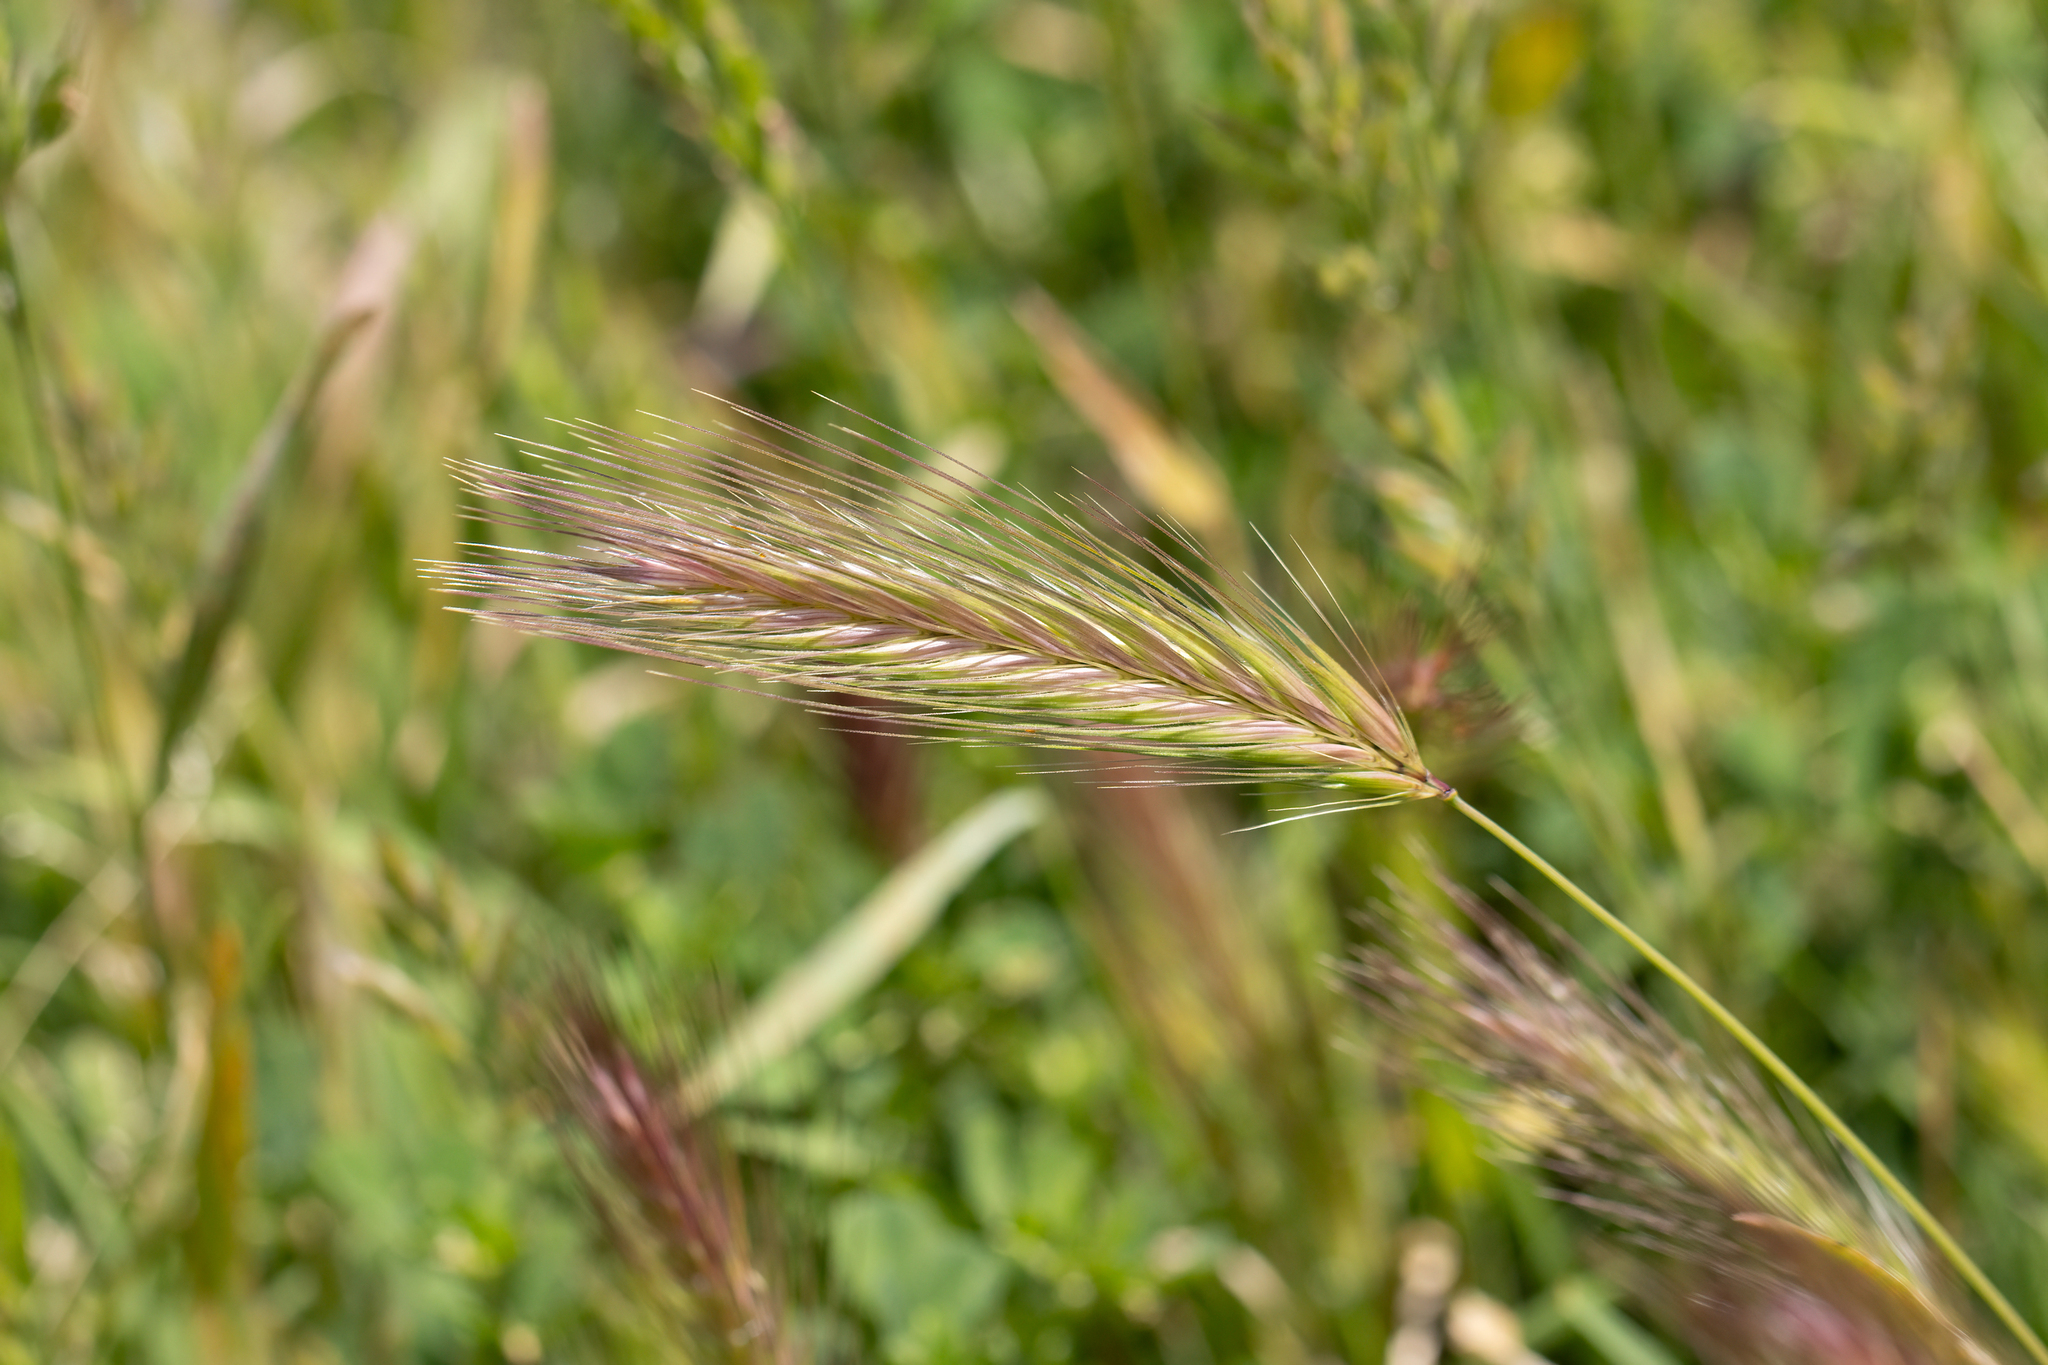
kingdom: Plantae
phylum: Tracheophyta
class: Liliopsida
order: Poales
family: Poaceae
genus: Hordeum
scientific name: Hordeum murinum
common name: Wall barley
